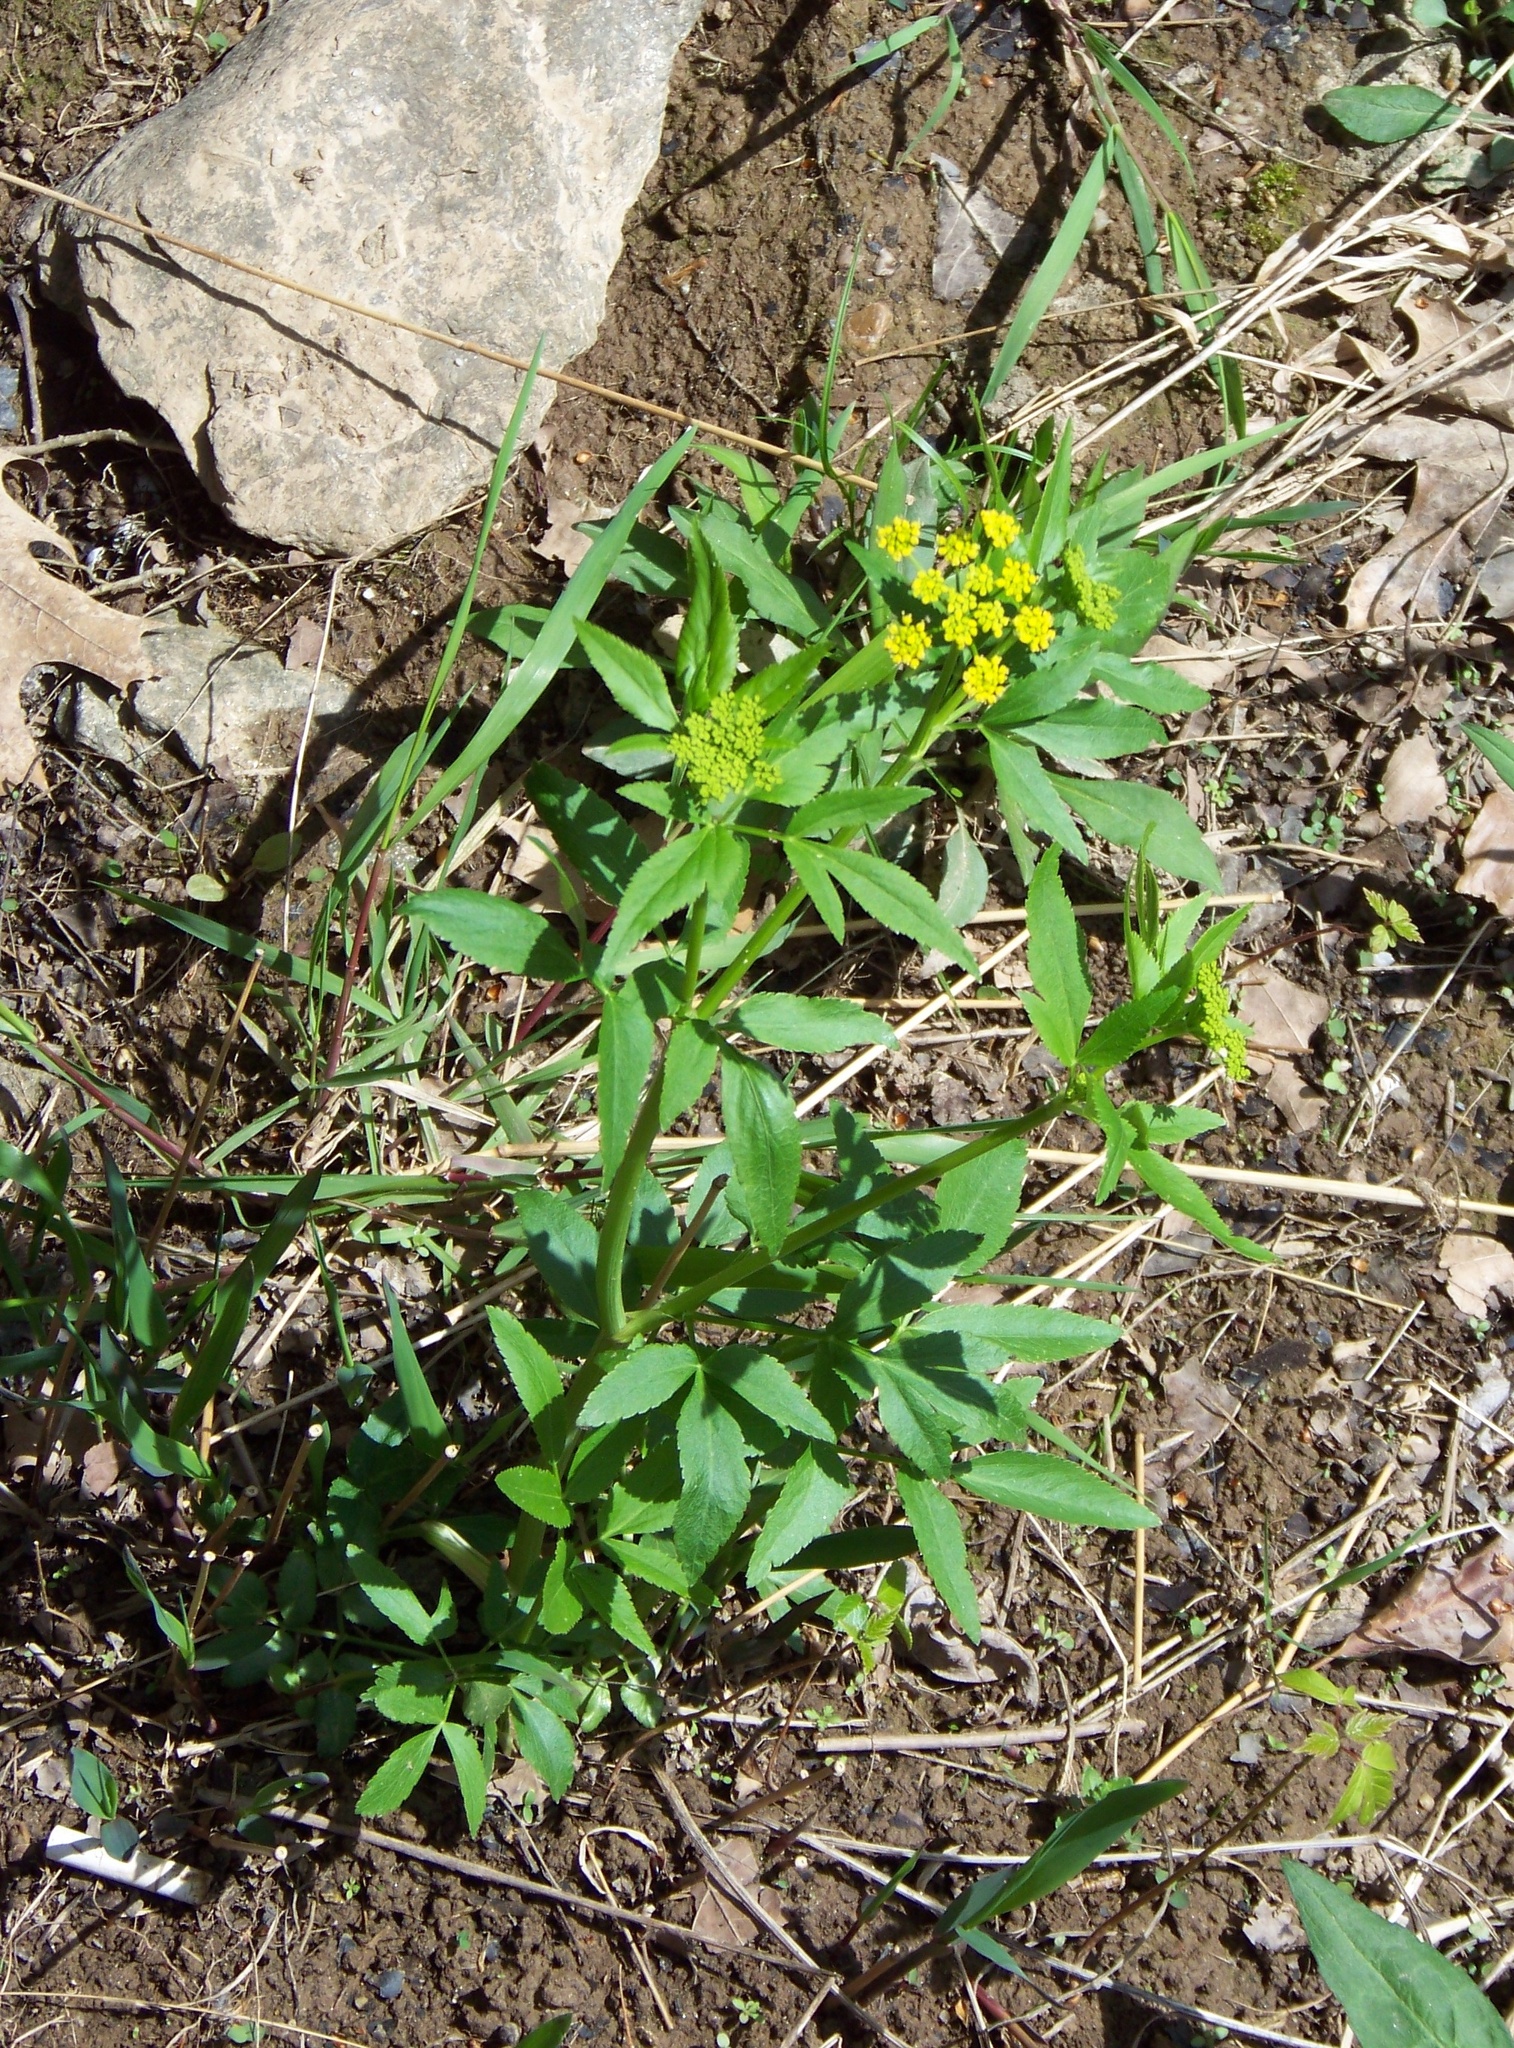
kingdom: Plantae
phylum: Tracheophyta
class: Magnoliopsida
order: Apiales
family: Apiaceae
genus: Zizia
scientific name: Zizia aurea
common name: Golden alexanders
